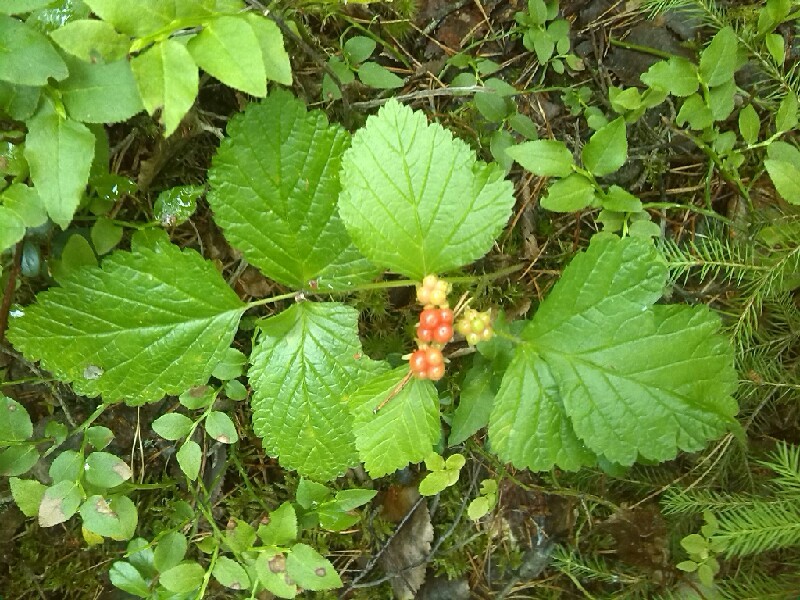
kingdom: Plantae
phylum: Tracheophyta
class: Magnoliopsida
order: Rosales
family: Rosaceae
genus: Rubus
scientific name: Rubus saxatilis
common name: Stone bramble
